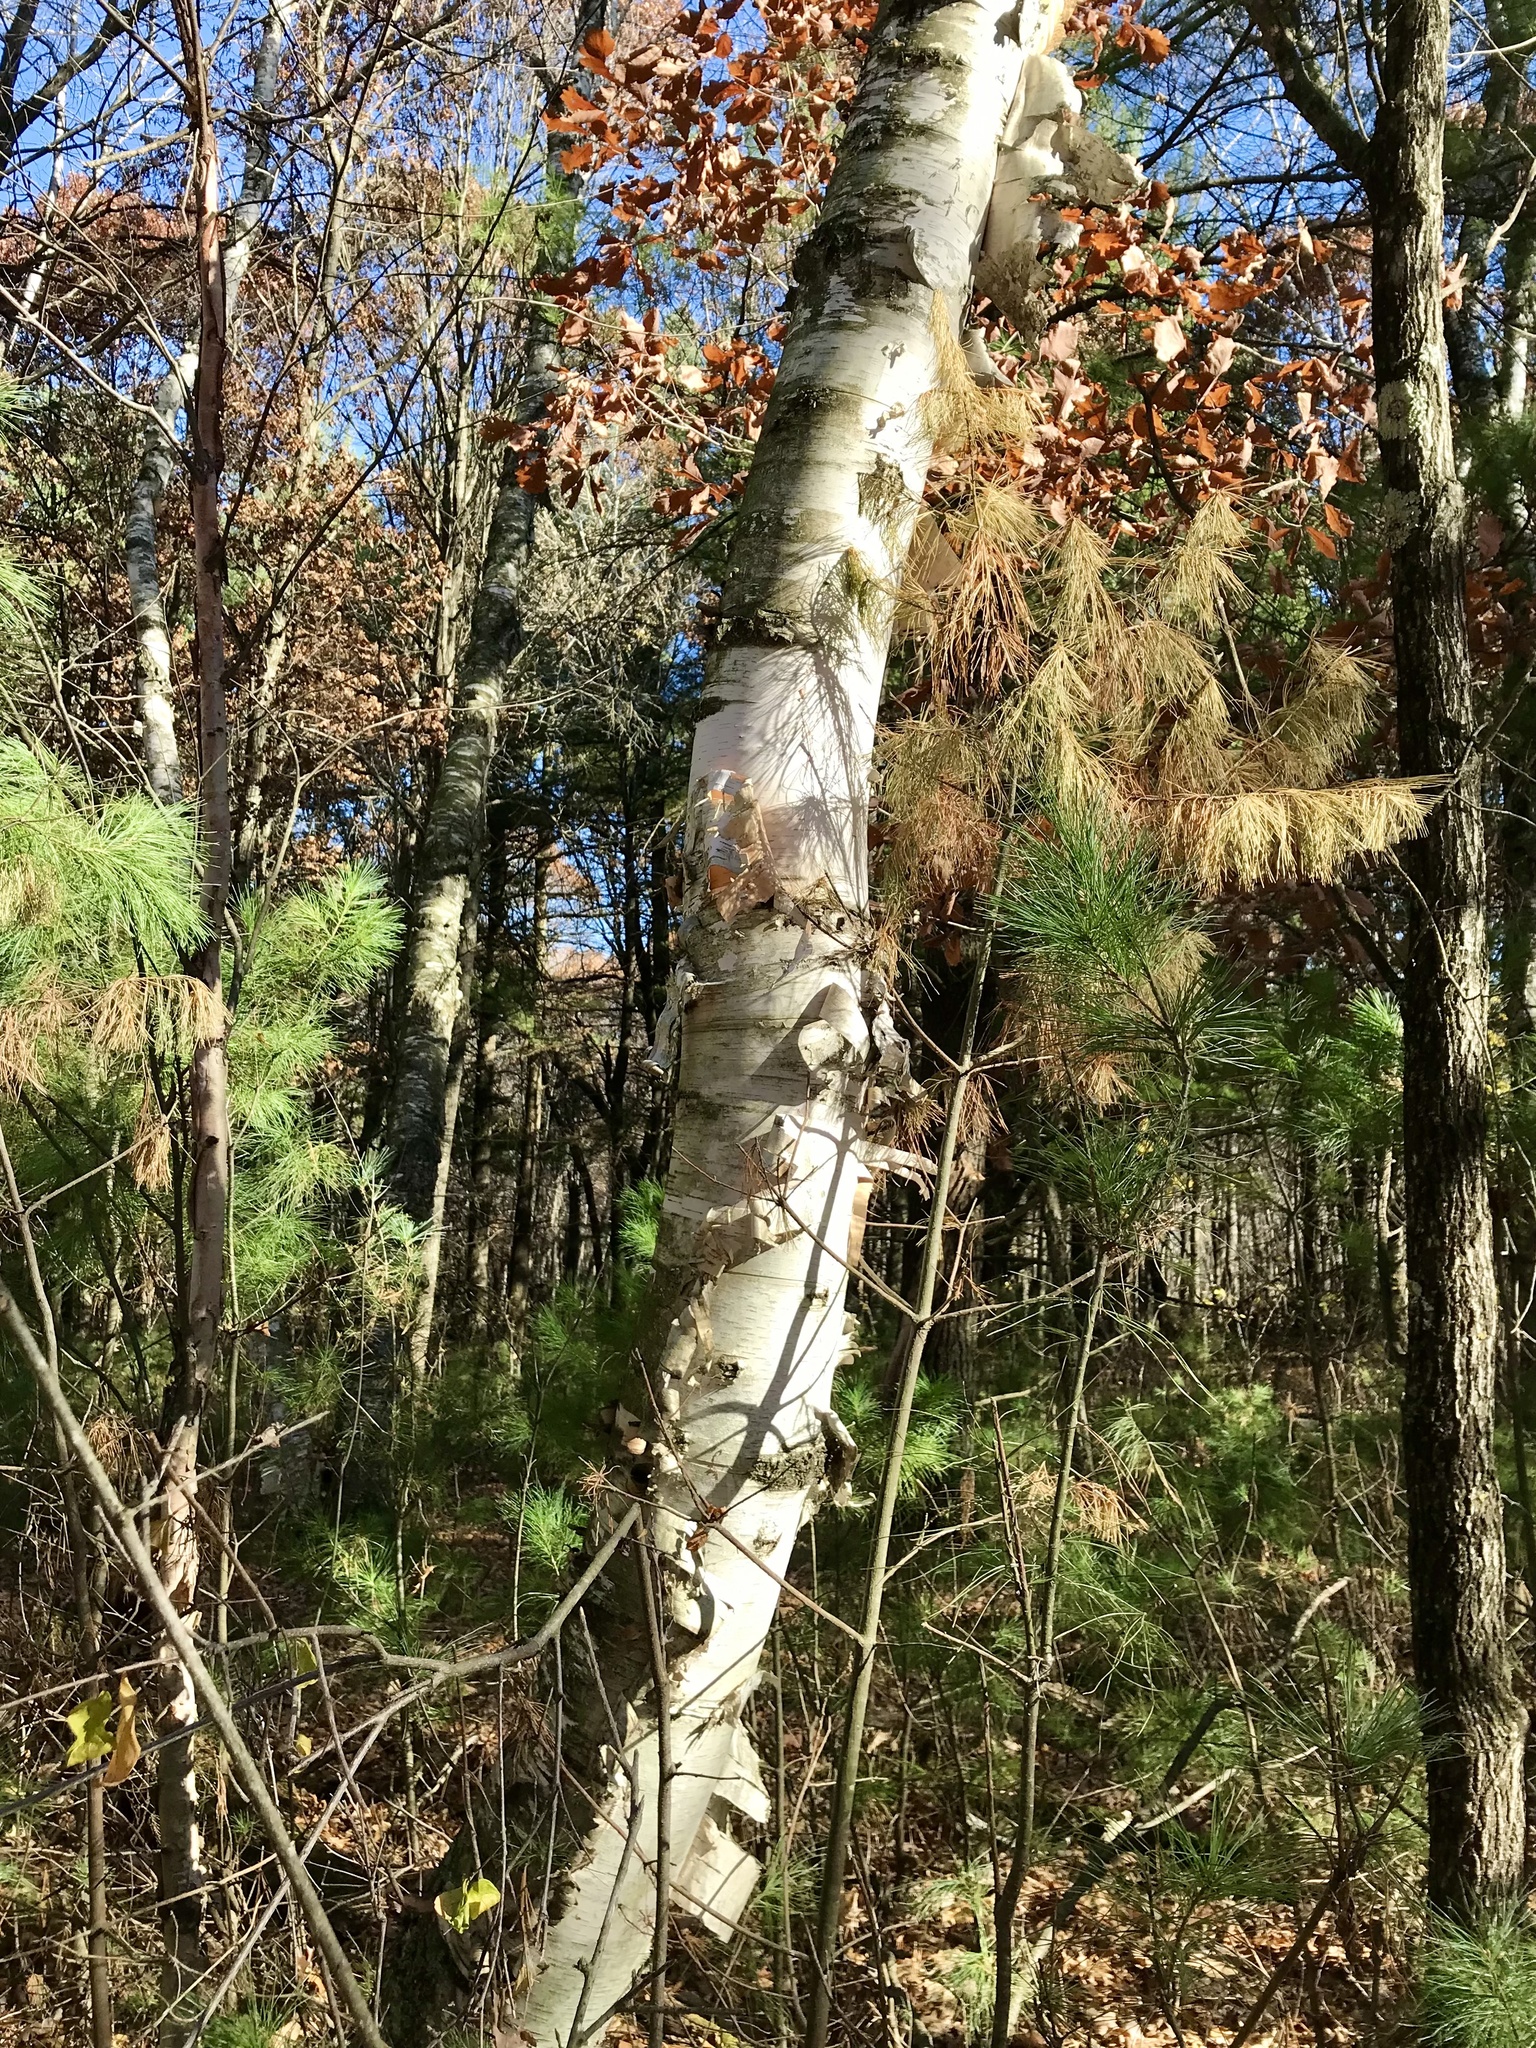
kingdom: Plantae
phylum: Tracheophyta
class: Magnoliopsida
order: Fagales
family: Betulaceae
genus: Betula
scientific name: Betula papyrifera
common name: Paper birch
